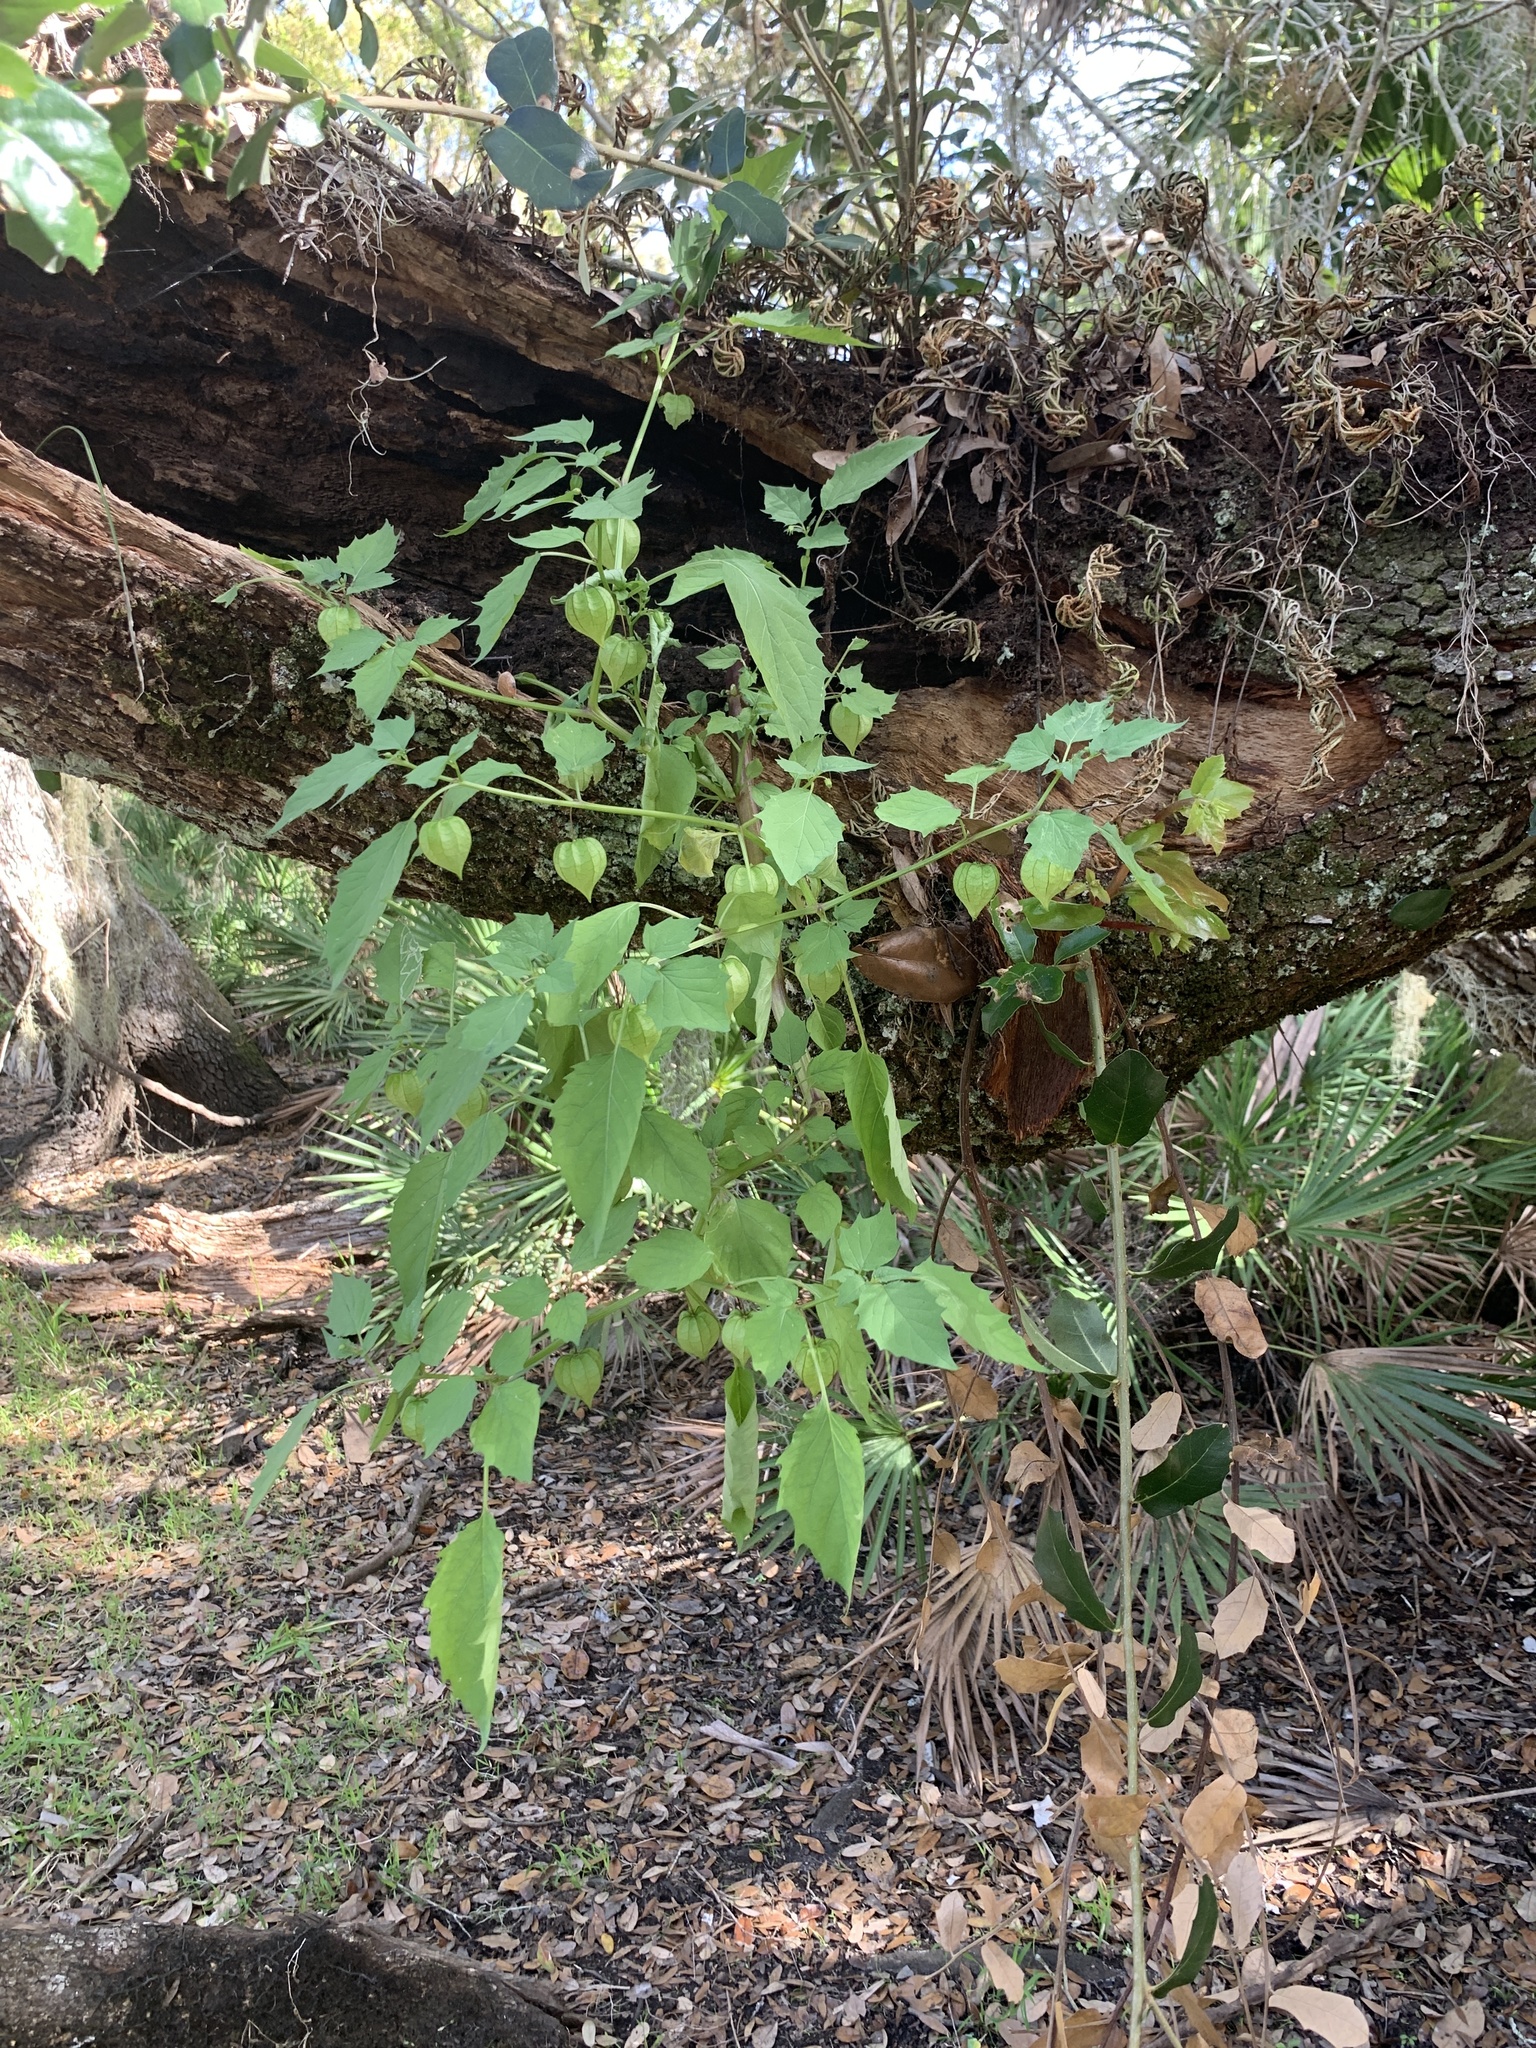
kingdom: Plantae
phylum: Tracheophyta
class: Magnoliopsida
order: Solanales
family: Solanaceae
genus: Physalis
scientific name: Physalis angulata
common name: Angular winter-cherry
